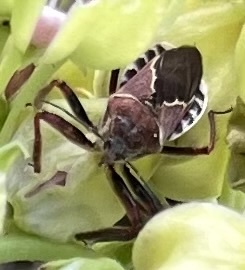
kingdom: Animalia
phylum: Arthropoda
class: Insecta
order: Hemiptera
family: Reduviidae
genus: Apiomerus
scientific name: Apiomerus spissipes
